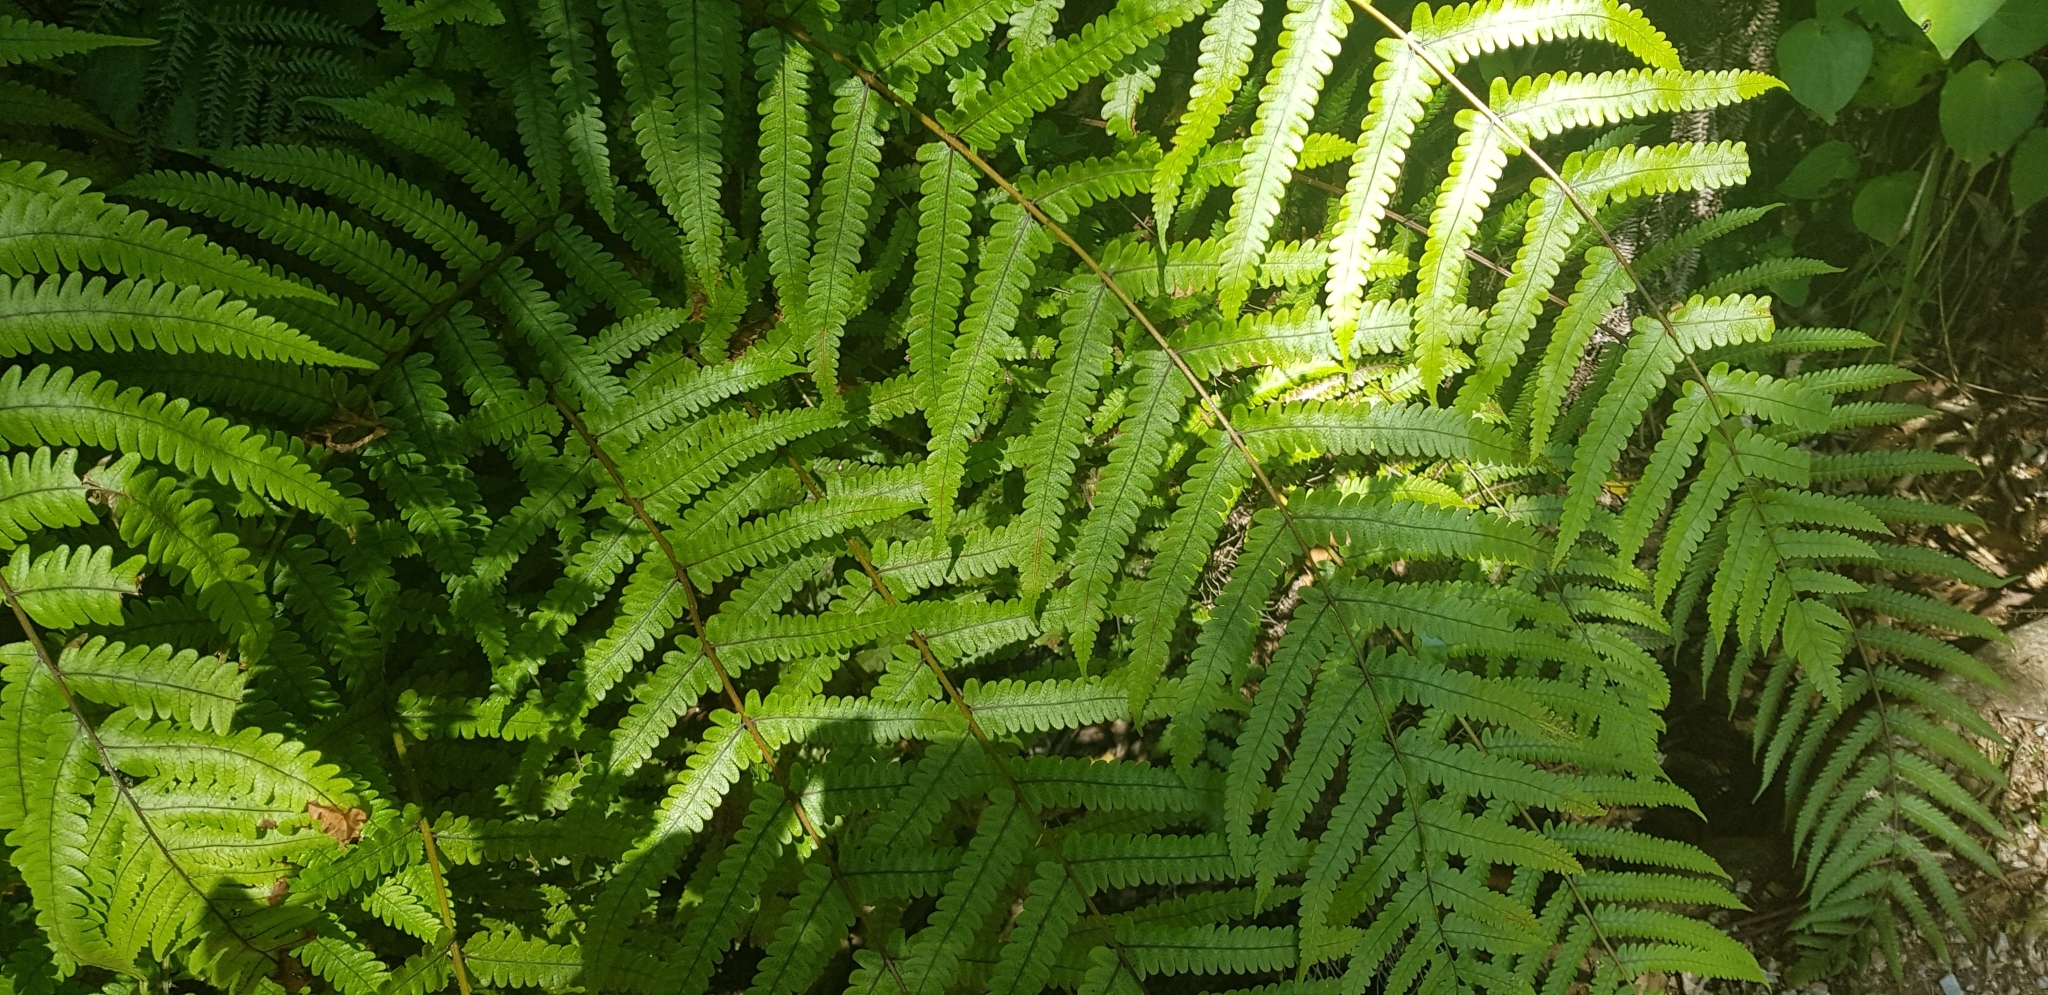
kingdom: Plantae
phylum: Tracheophyta
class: Polypodiopsida
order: Polypodiales
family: Thelypteridaceae
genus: Pakau
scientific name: Pakau pennigera
